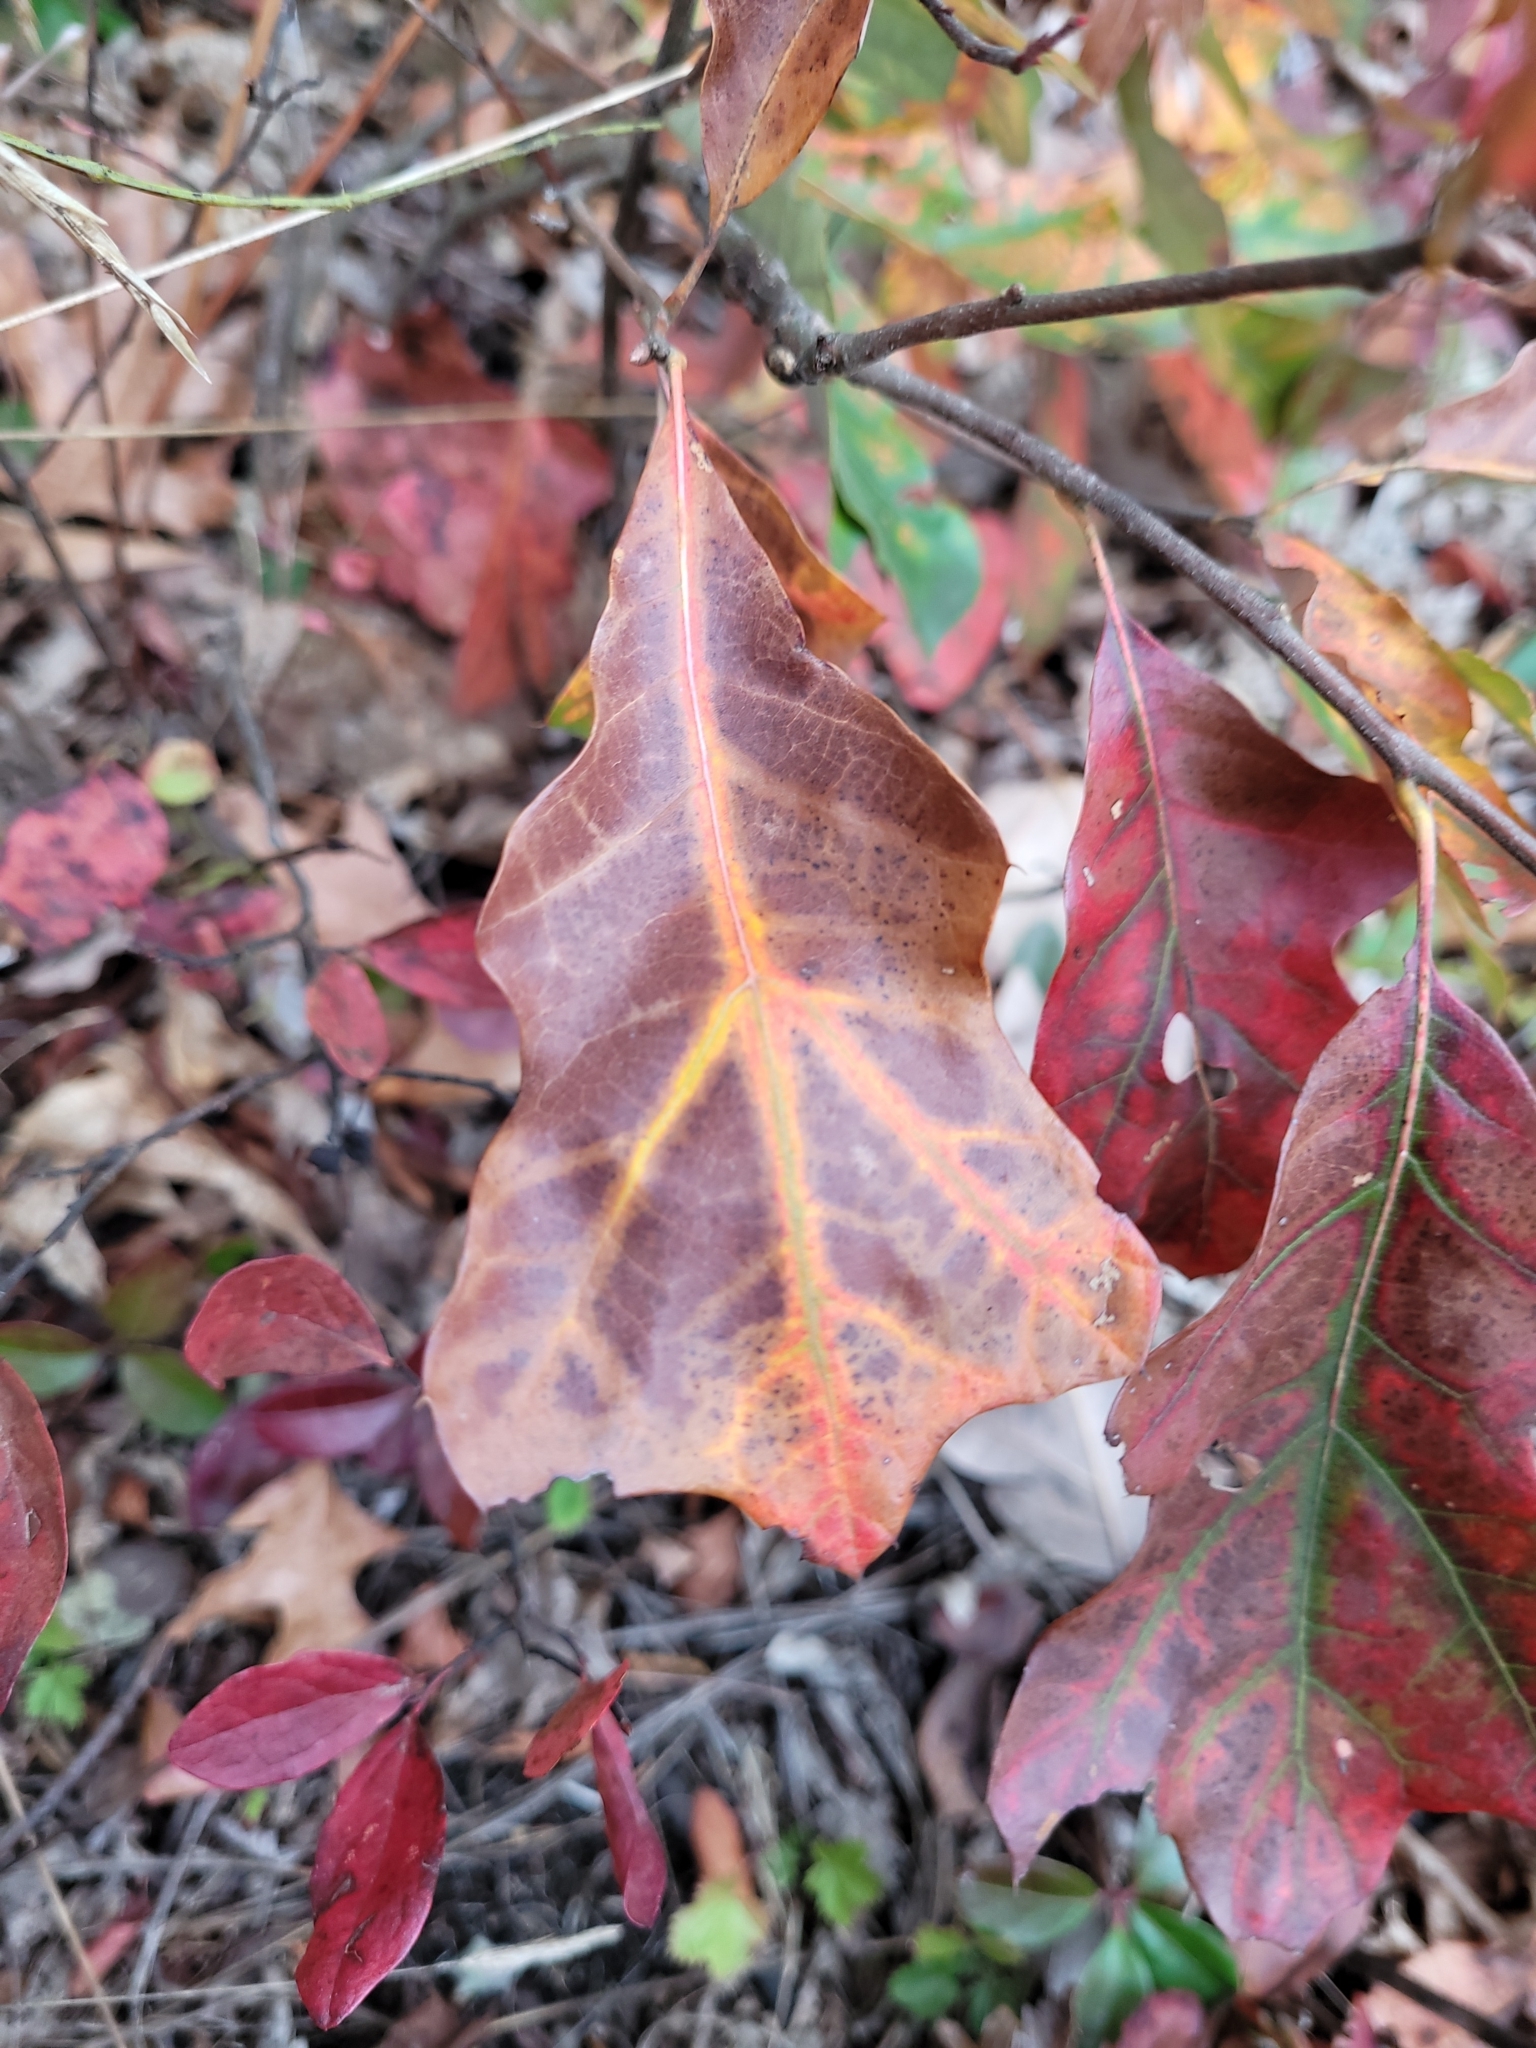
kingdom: Plantae
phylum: Tracheophyta
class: Magnoliopsida
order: Fagales
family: Fagaceae
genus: Quercus
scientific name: Quercus ilicifolia
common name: Bear oak
